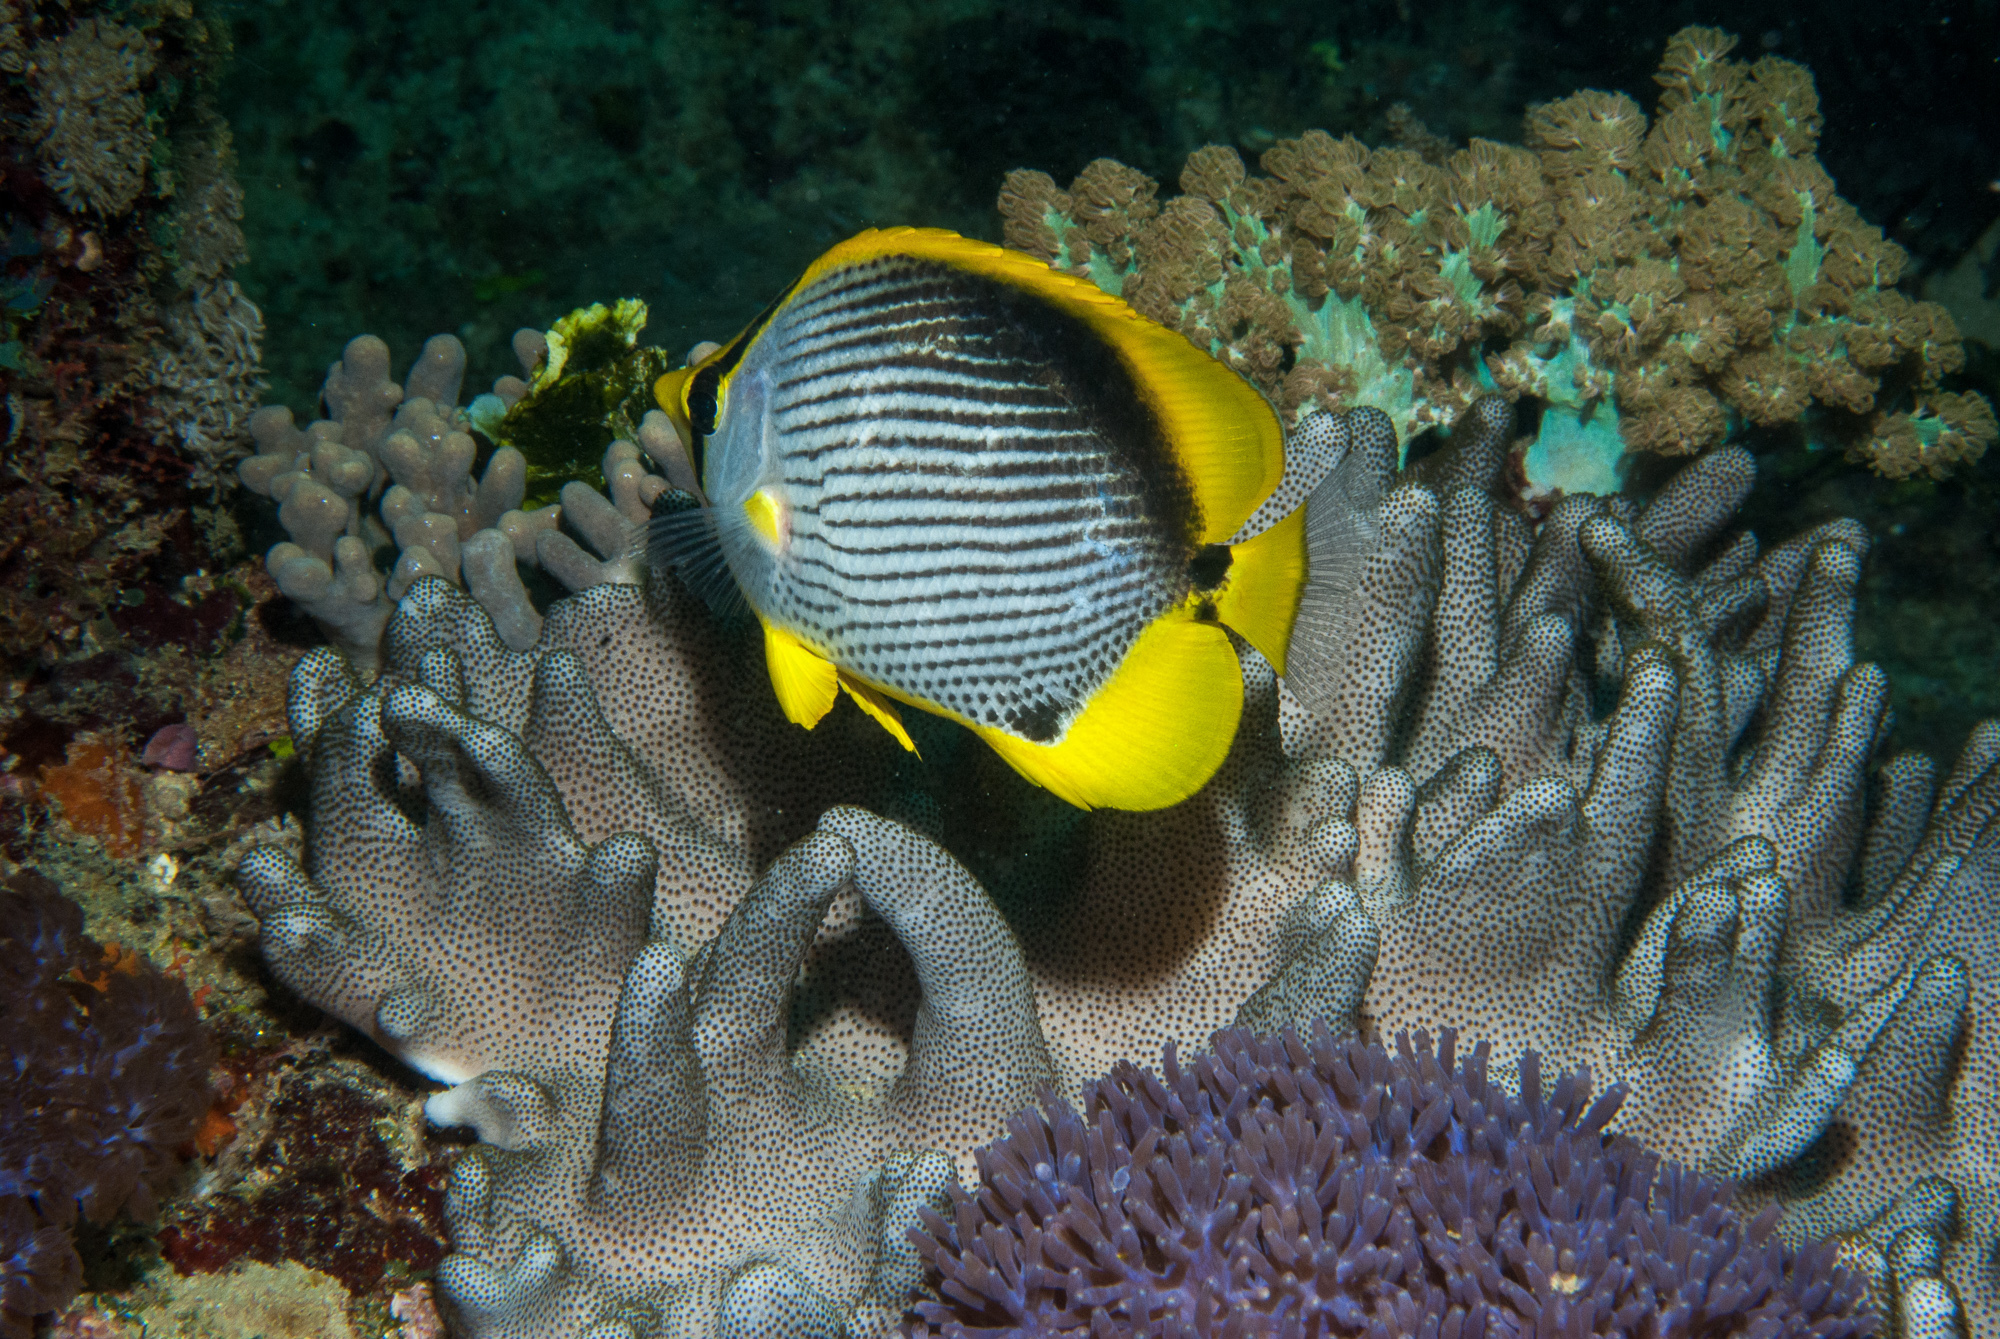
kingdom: Animalia
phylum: Chordata
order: Perciformes
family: Chaetodontidae
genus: Chaetodon
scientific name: Chaetodon melannotus
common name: Blackback butterflyfish
